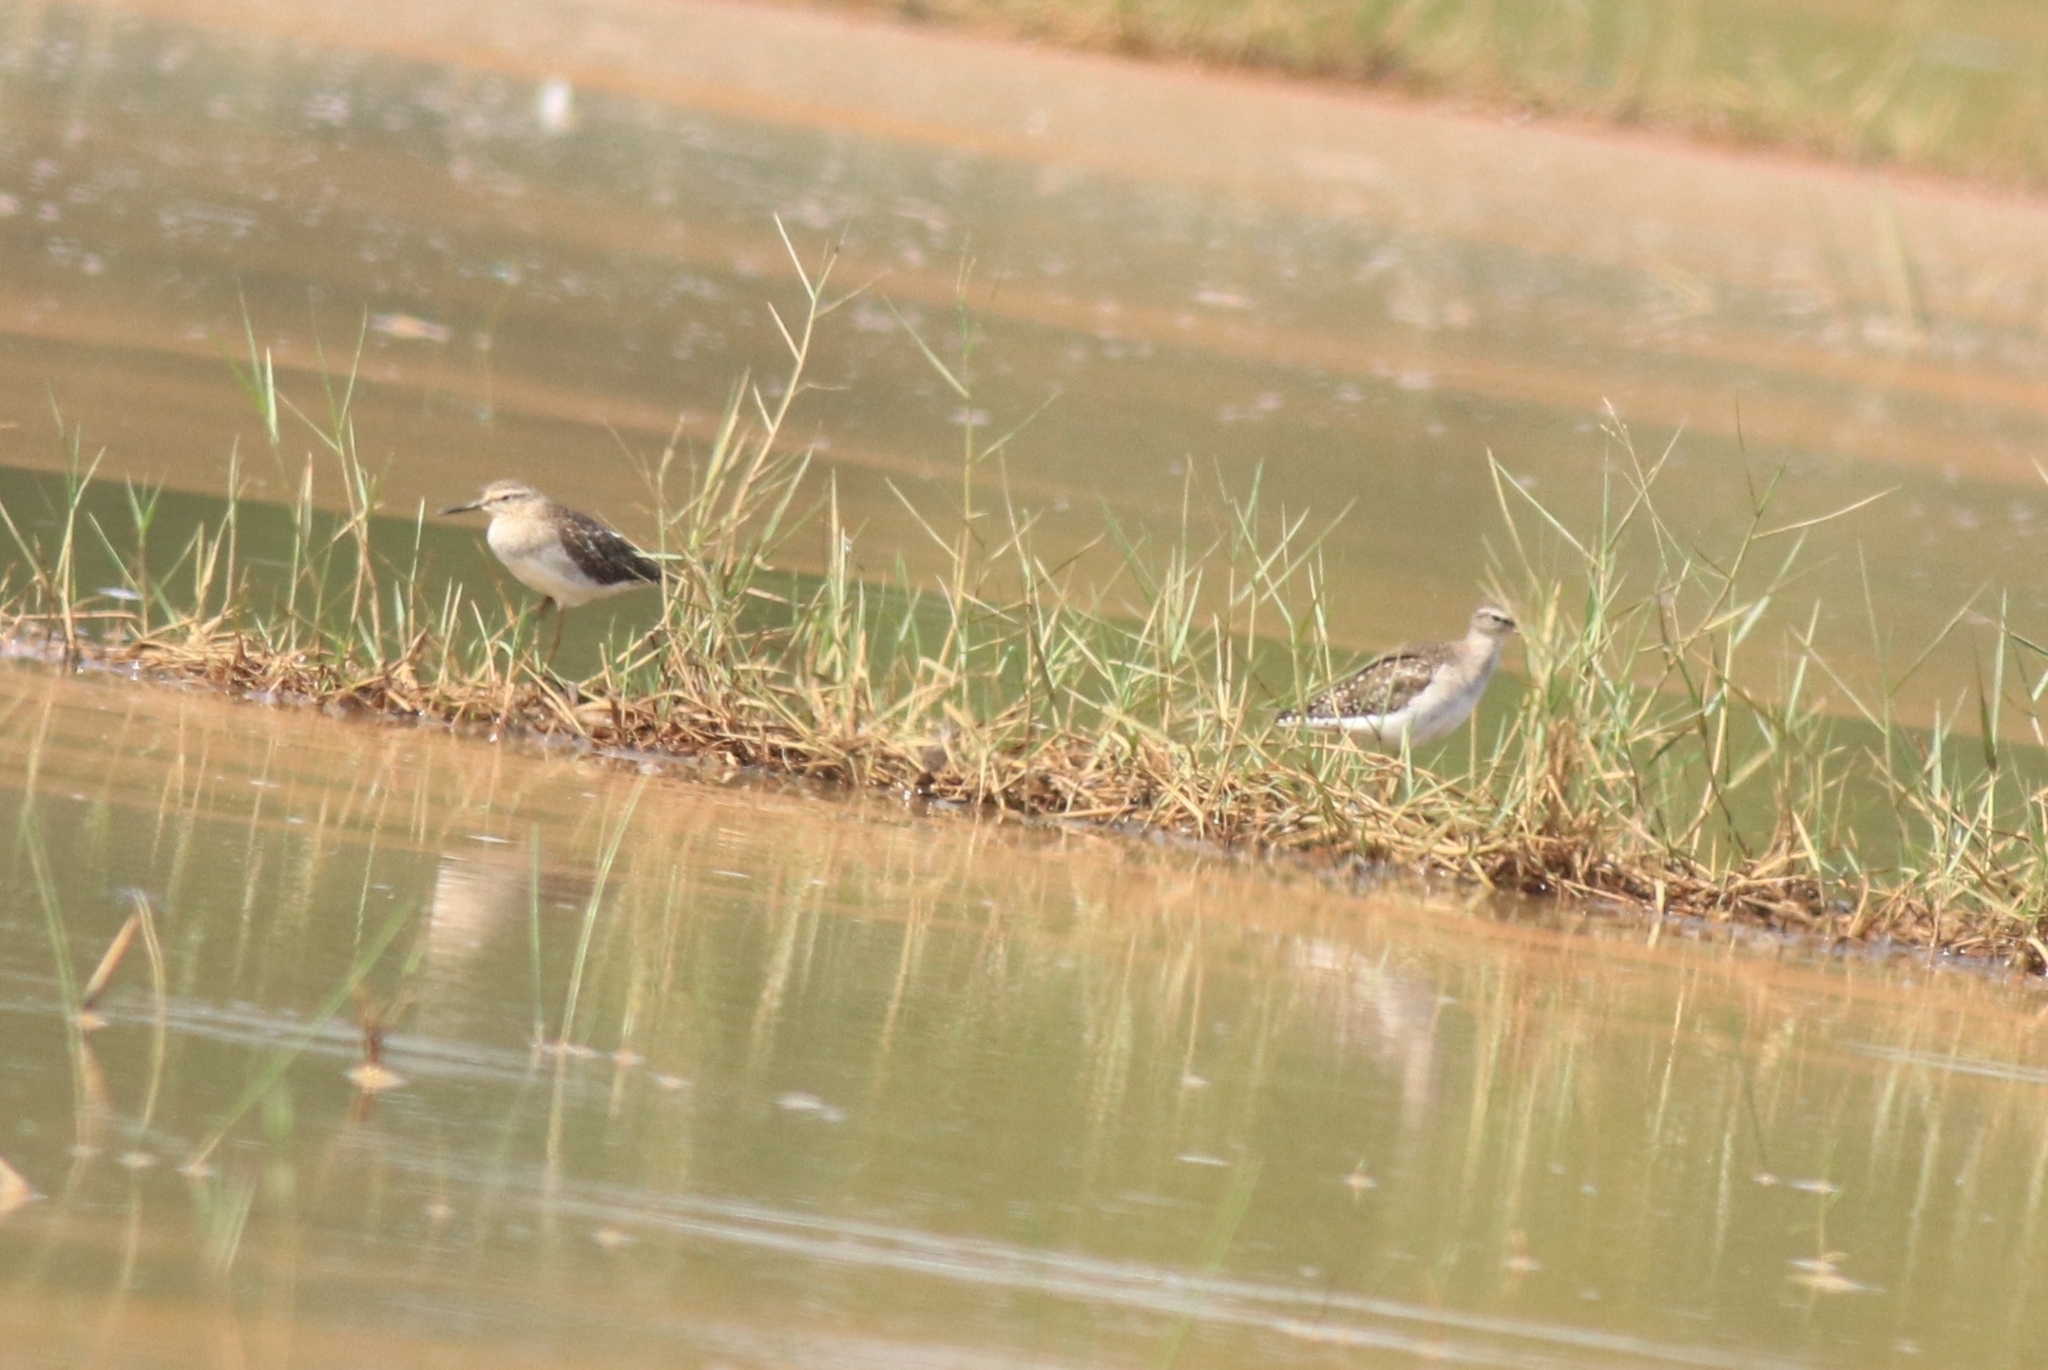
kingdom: Animalia
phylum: Chordata
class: Aves
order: Charadriiformes
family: Scolopacidae
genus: Tringa
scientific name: Tringa glareola
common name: Wood sandpiper
